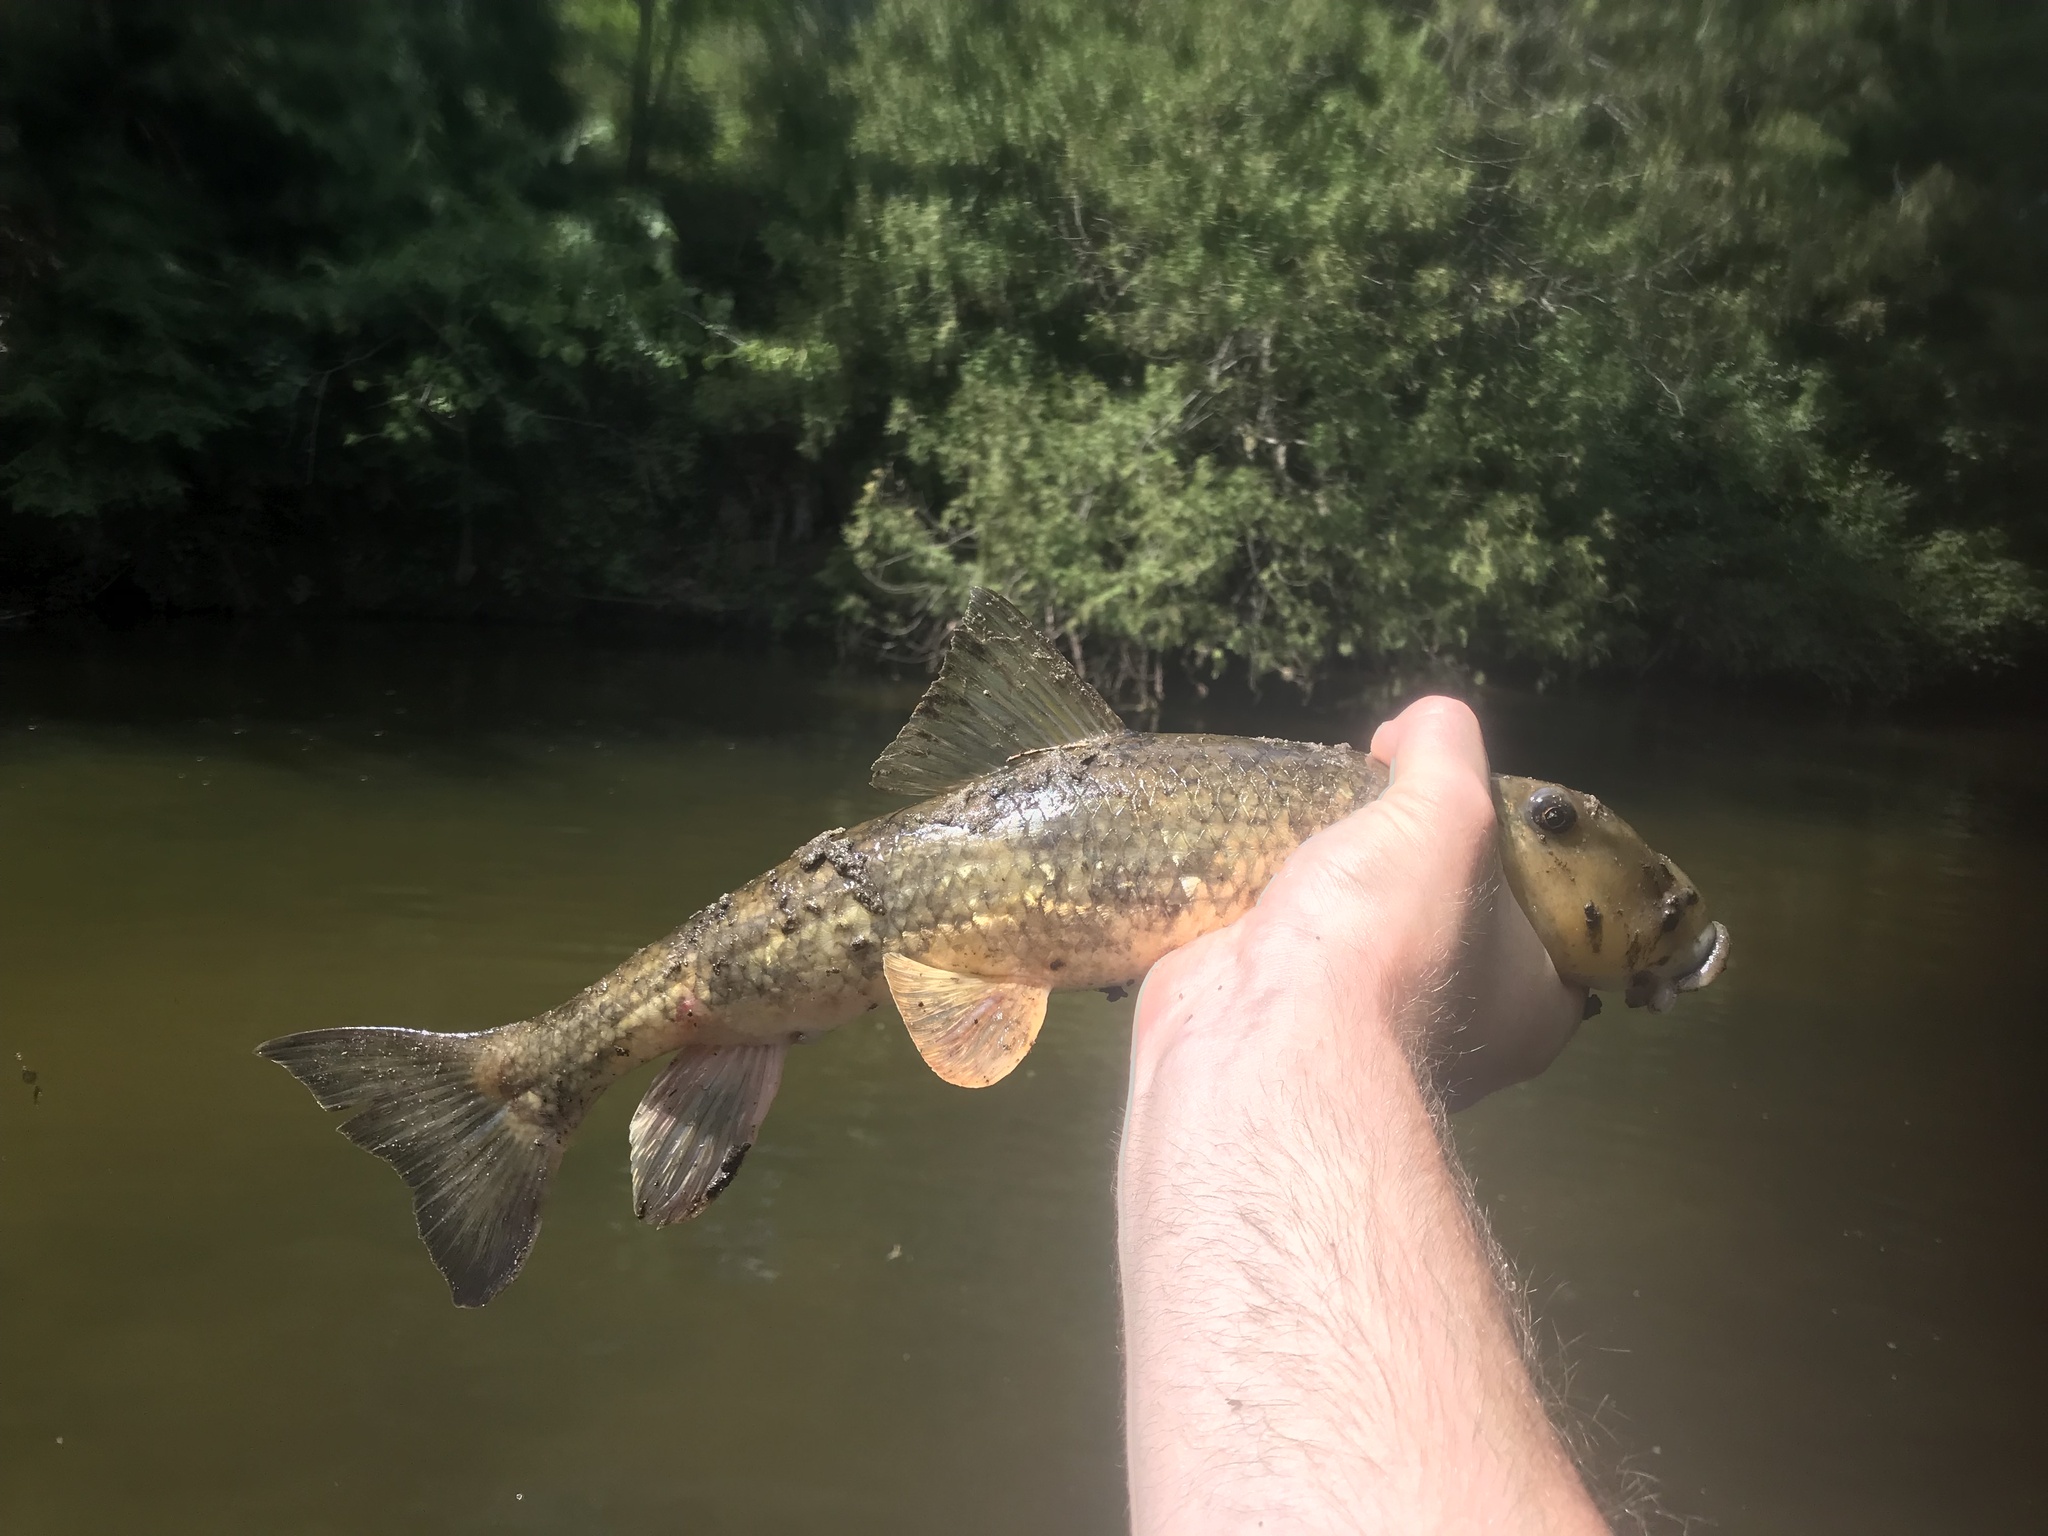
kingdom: Animalia
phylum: Chordata
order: Cypriniformes
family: Catostomidae
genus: Hypentelium
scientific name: Hypentelium nigricans
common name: Northern hog sucker
